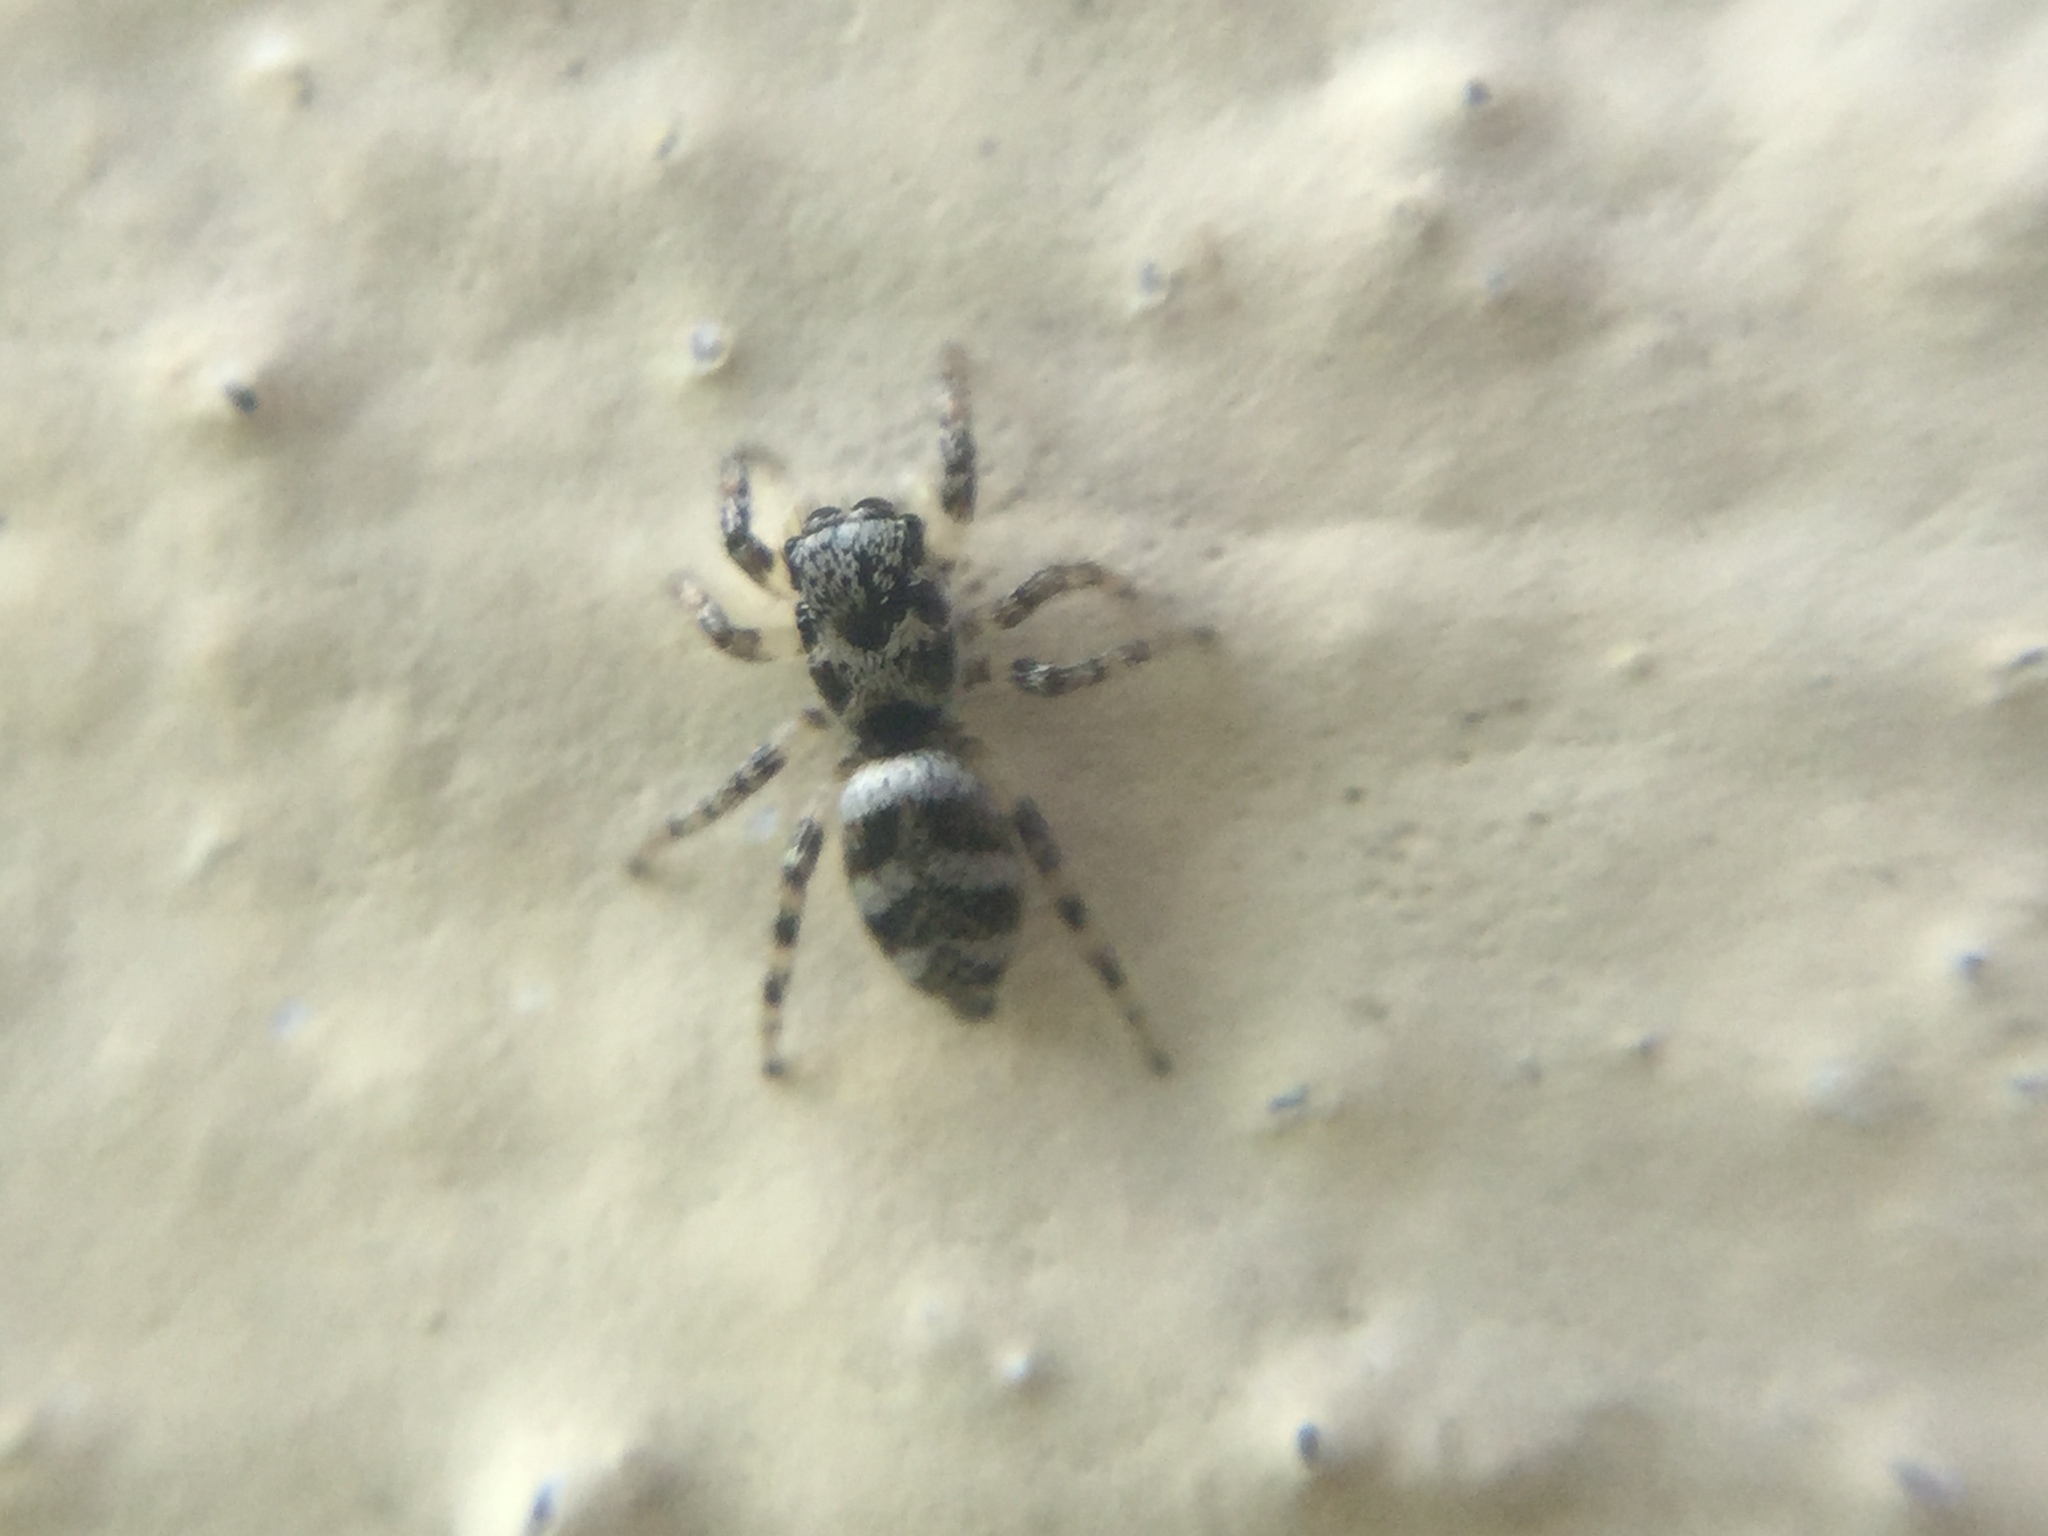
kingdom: Animalia
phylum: Arthropoda
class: Arachnida
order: Araneae
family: Salticidae
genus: Salticus
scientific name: Salticus scenicus
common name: Zebra jumper
